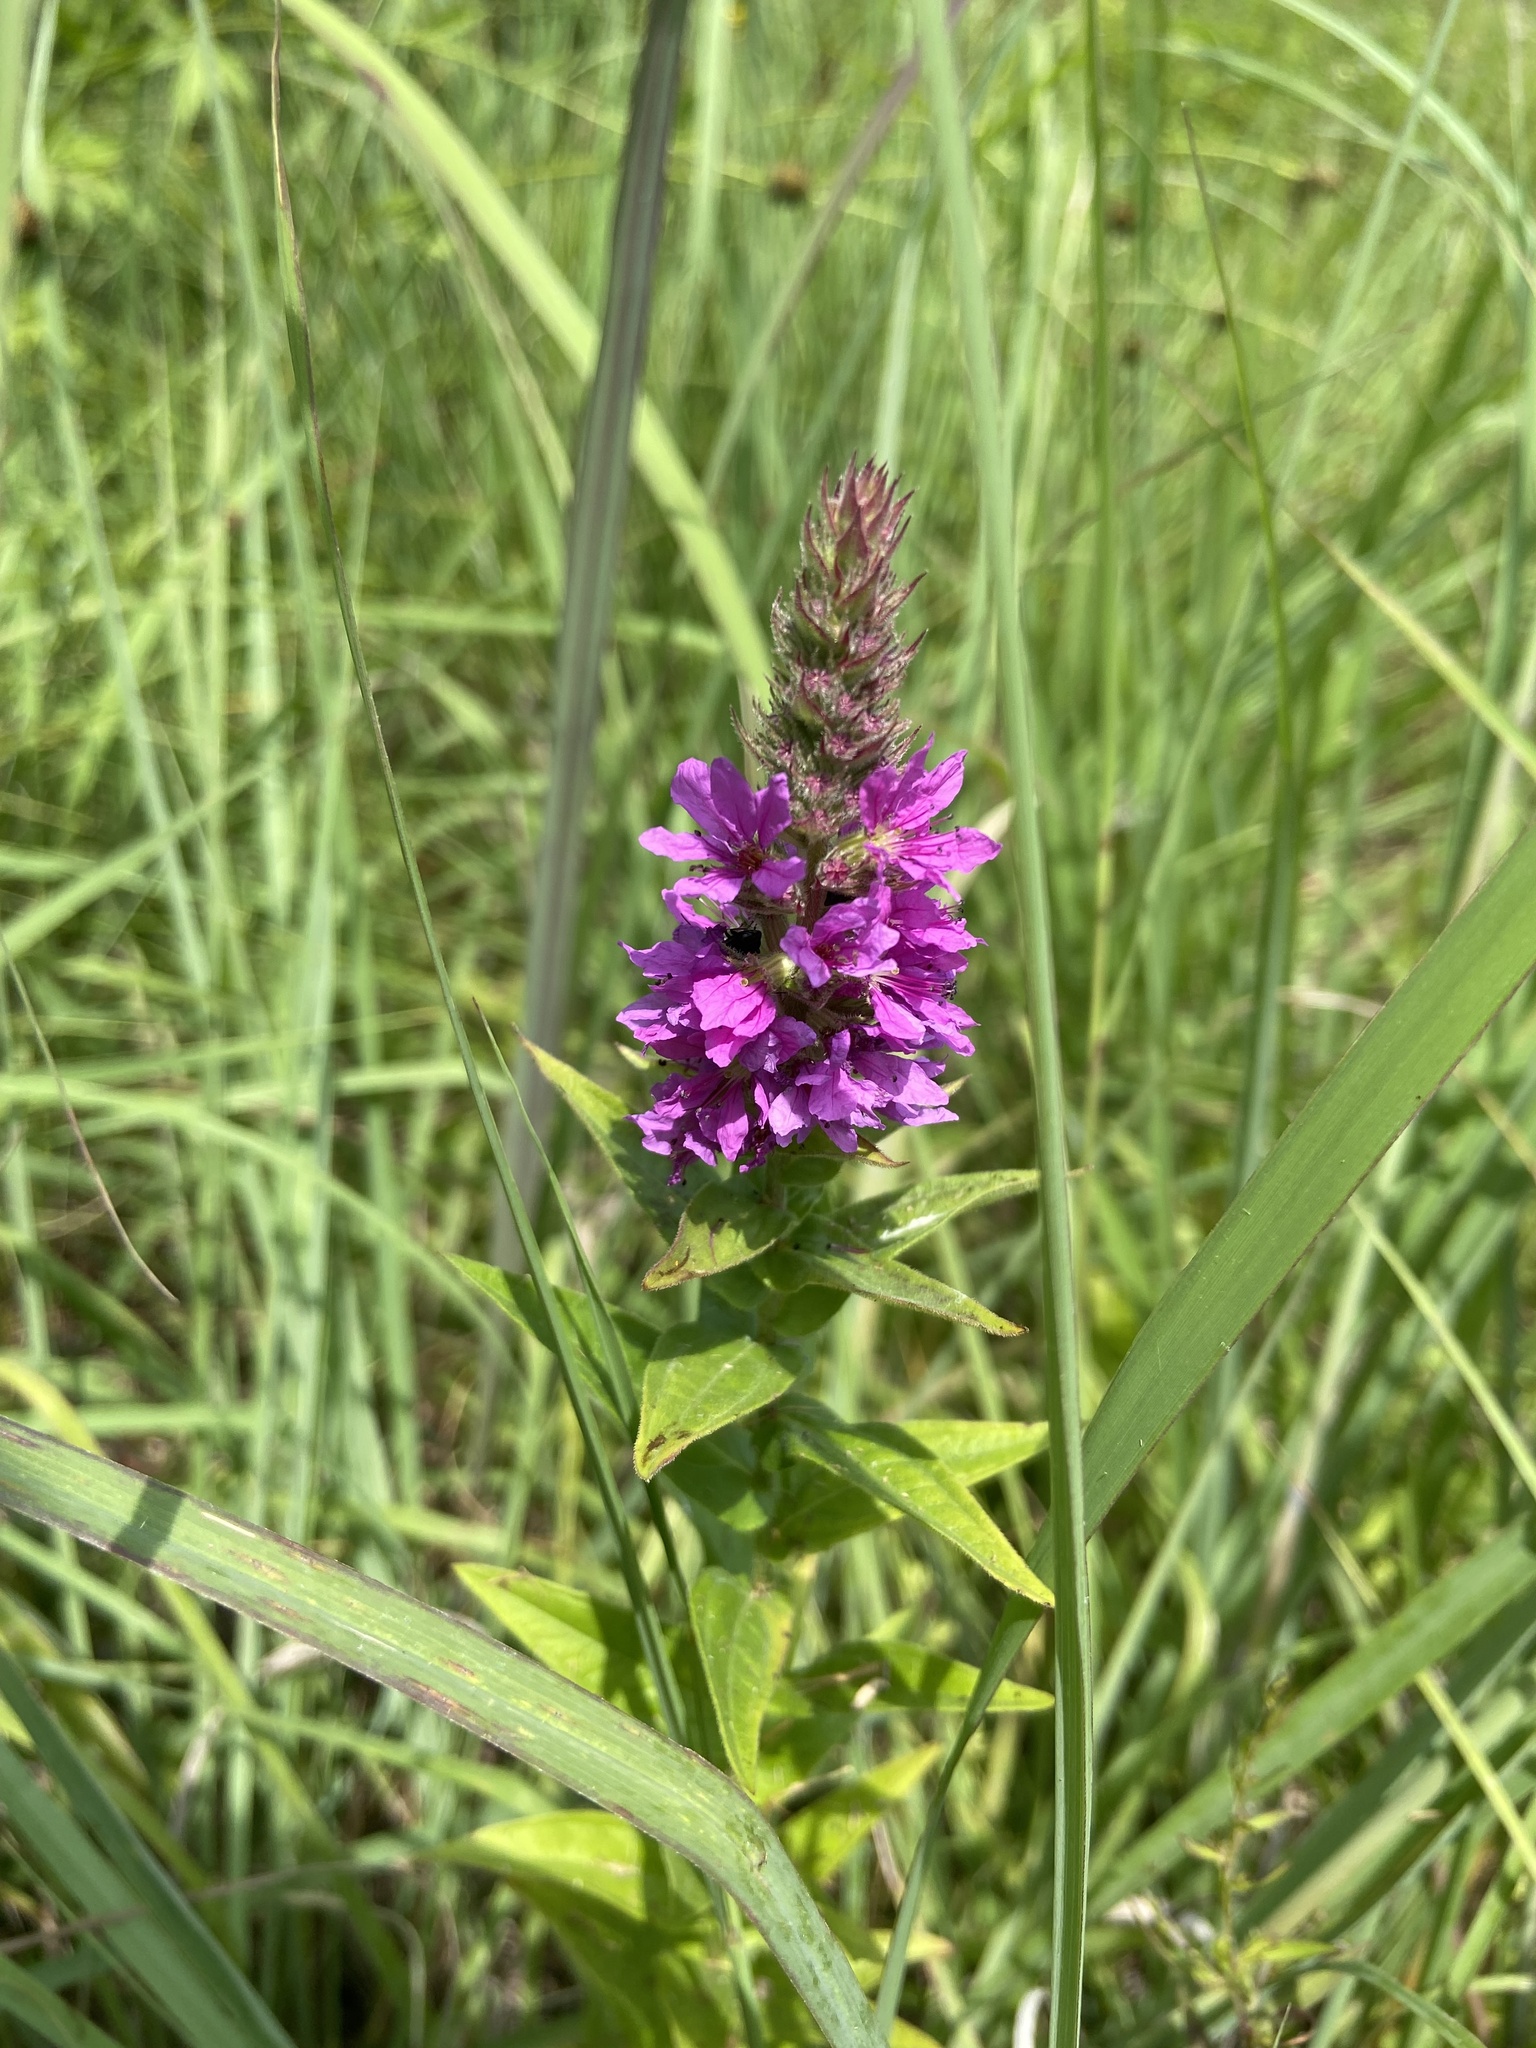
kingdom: Plantae
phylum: Tracheophyta
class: Magnoliopsida
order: Myrtales
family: Lythraceae
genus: Lythrum
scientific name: Lythrum salicaria
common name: Purple loosestrife
